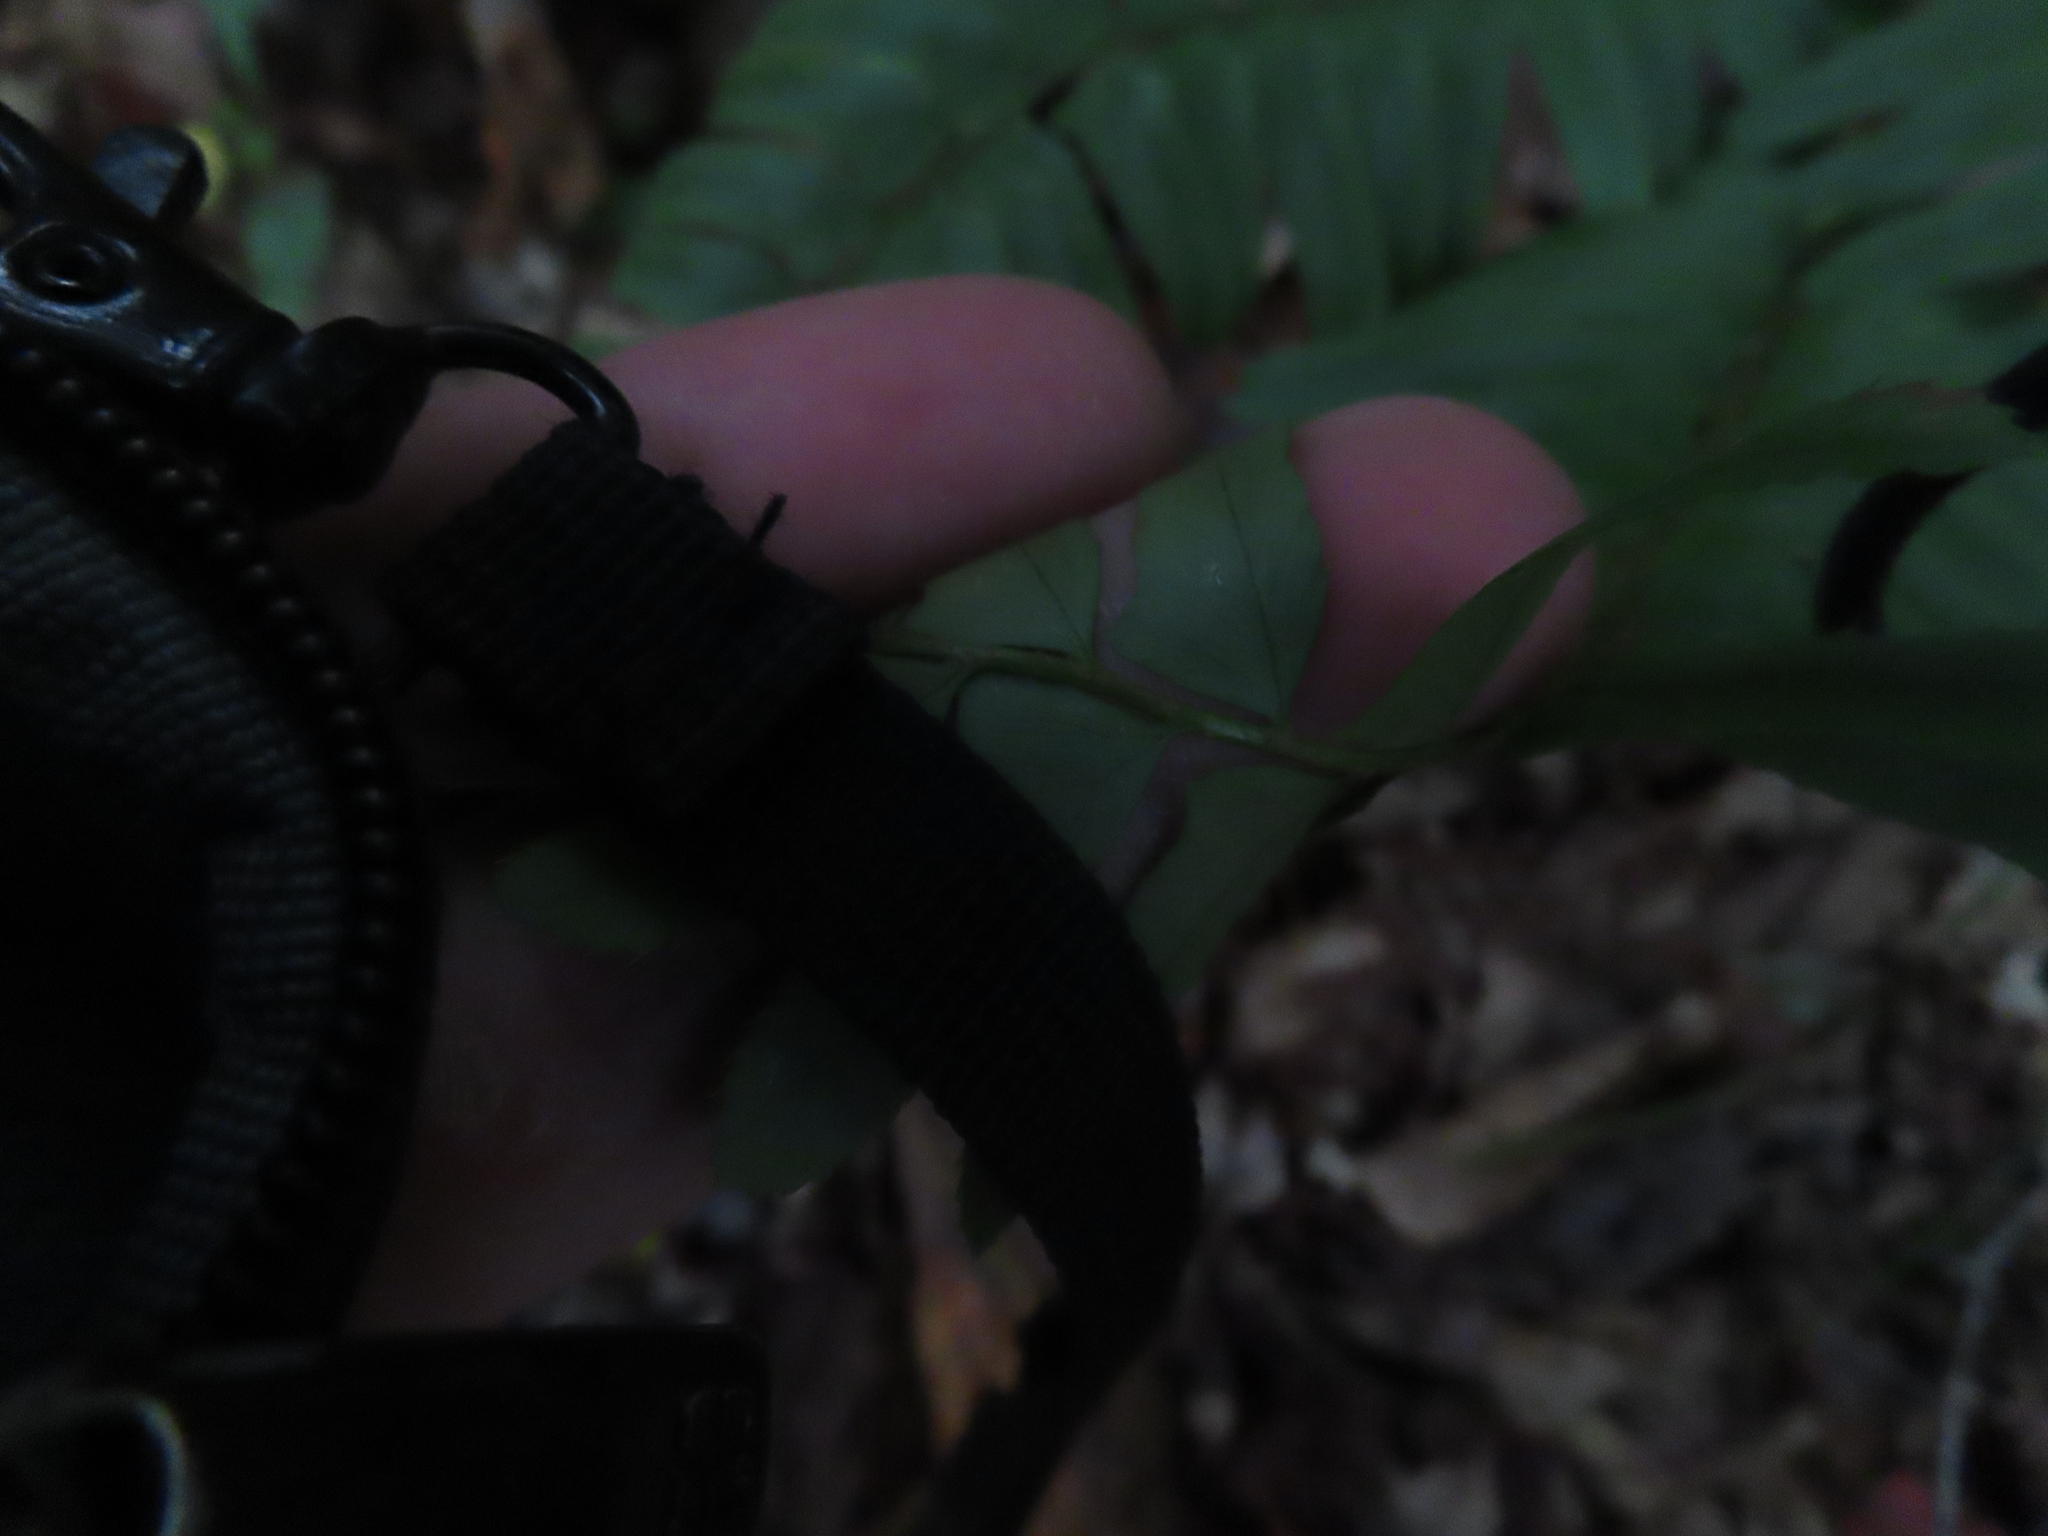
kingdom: Plantae
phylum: Tracheophyta
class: Polypodiopsida
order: Polypodiales
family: Dryopteridaceae
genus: Polystichum
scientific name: Polystichum acrostichoides
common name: Christmas fern
